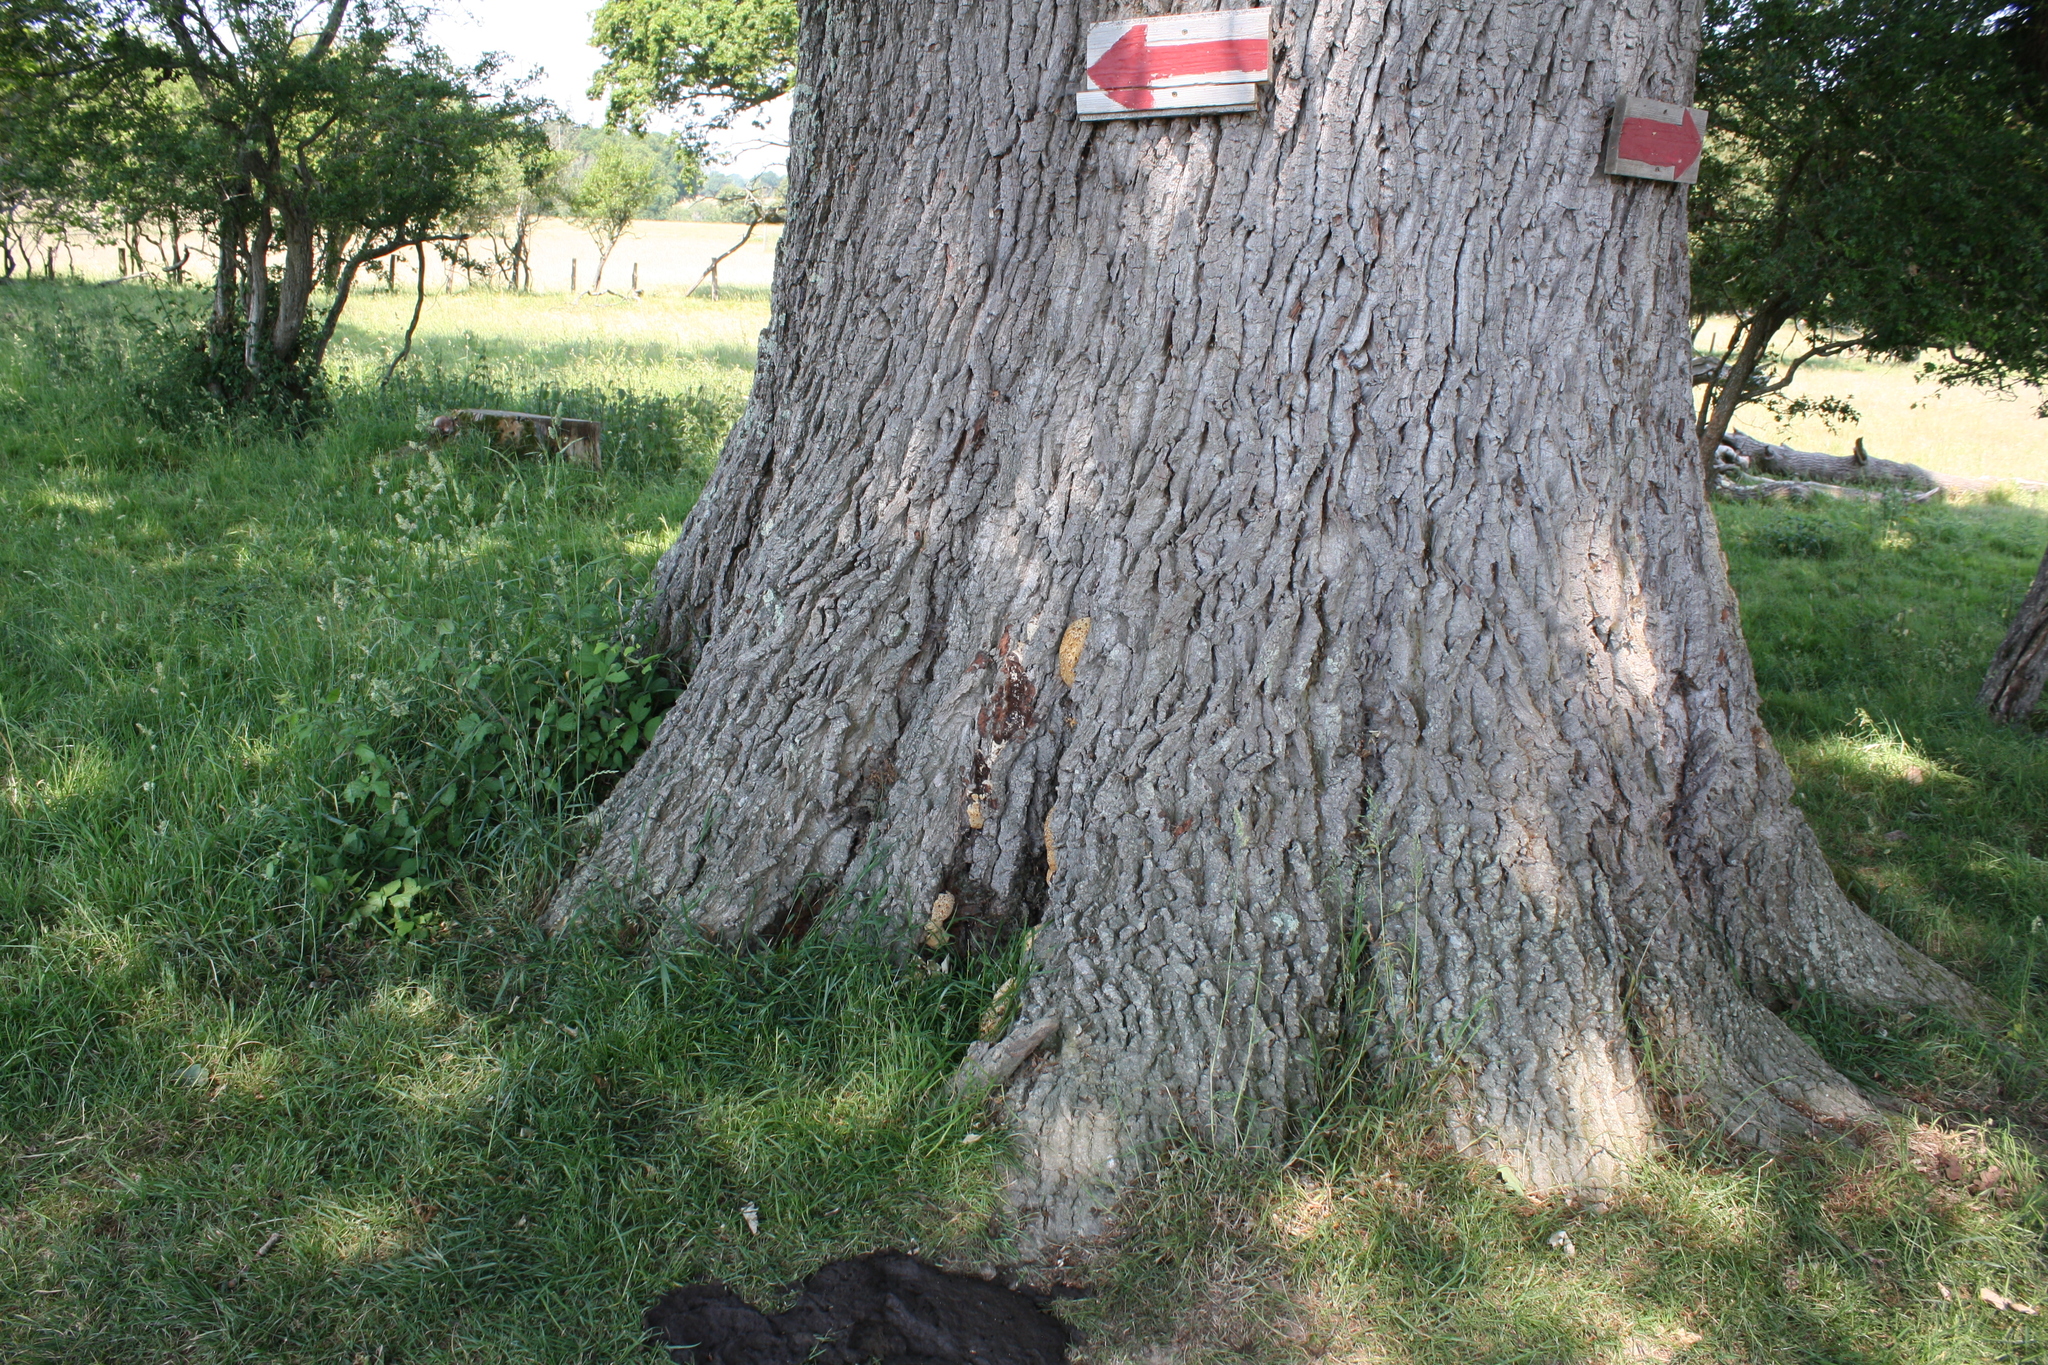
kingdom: Fungi
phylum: Basidiomycota
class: Agaricomycetes
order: Hymenochaetales
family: Hymenochaetaceae
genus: Pseudoinonotus
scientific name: Pseudoinonotus dryadeus
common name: Oak bracket
